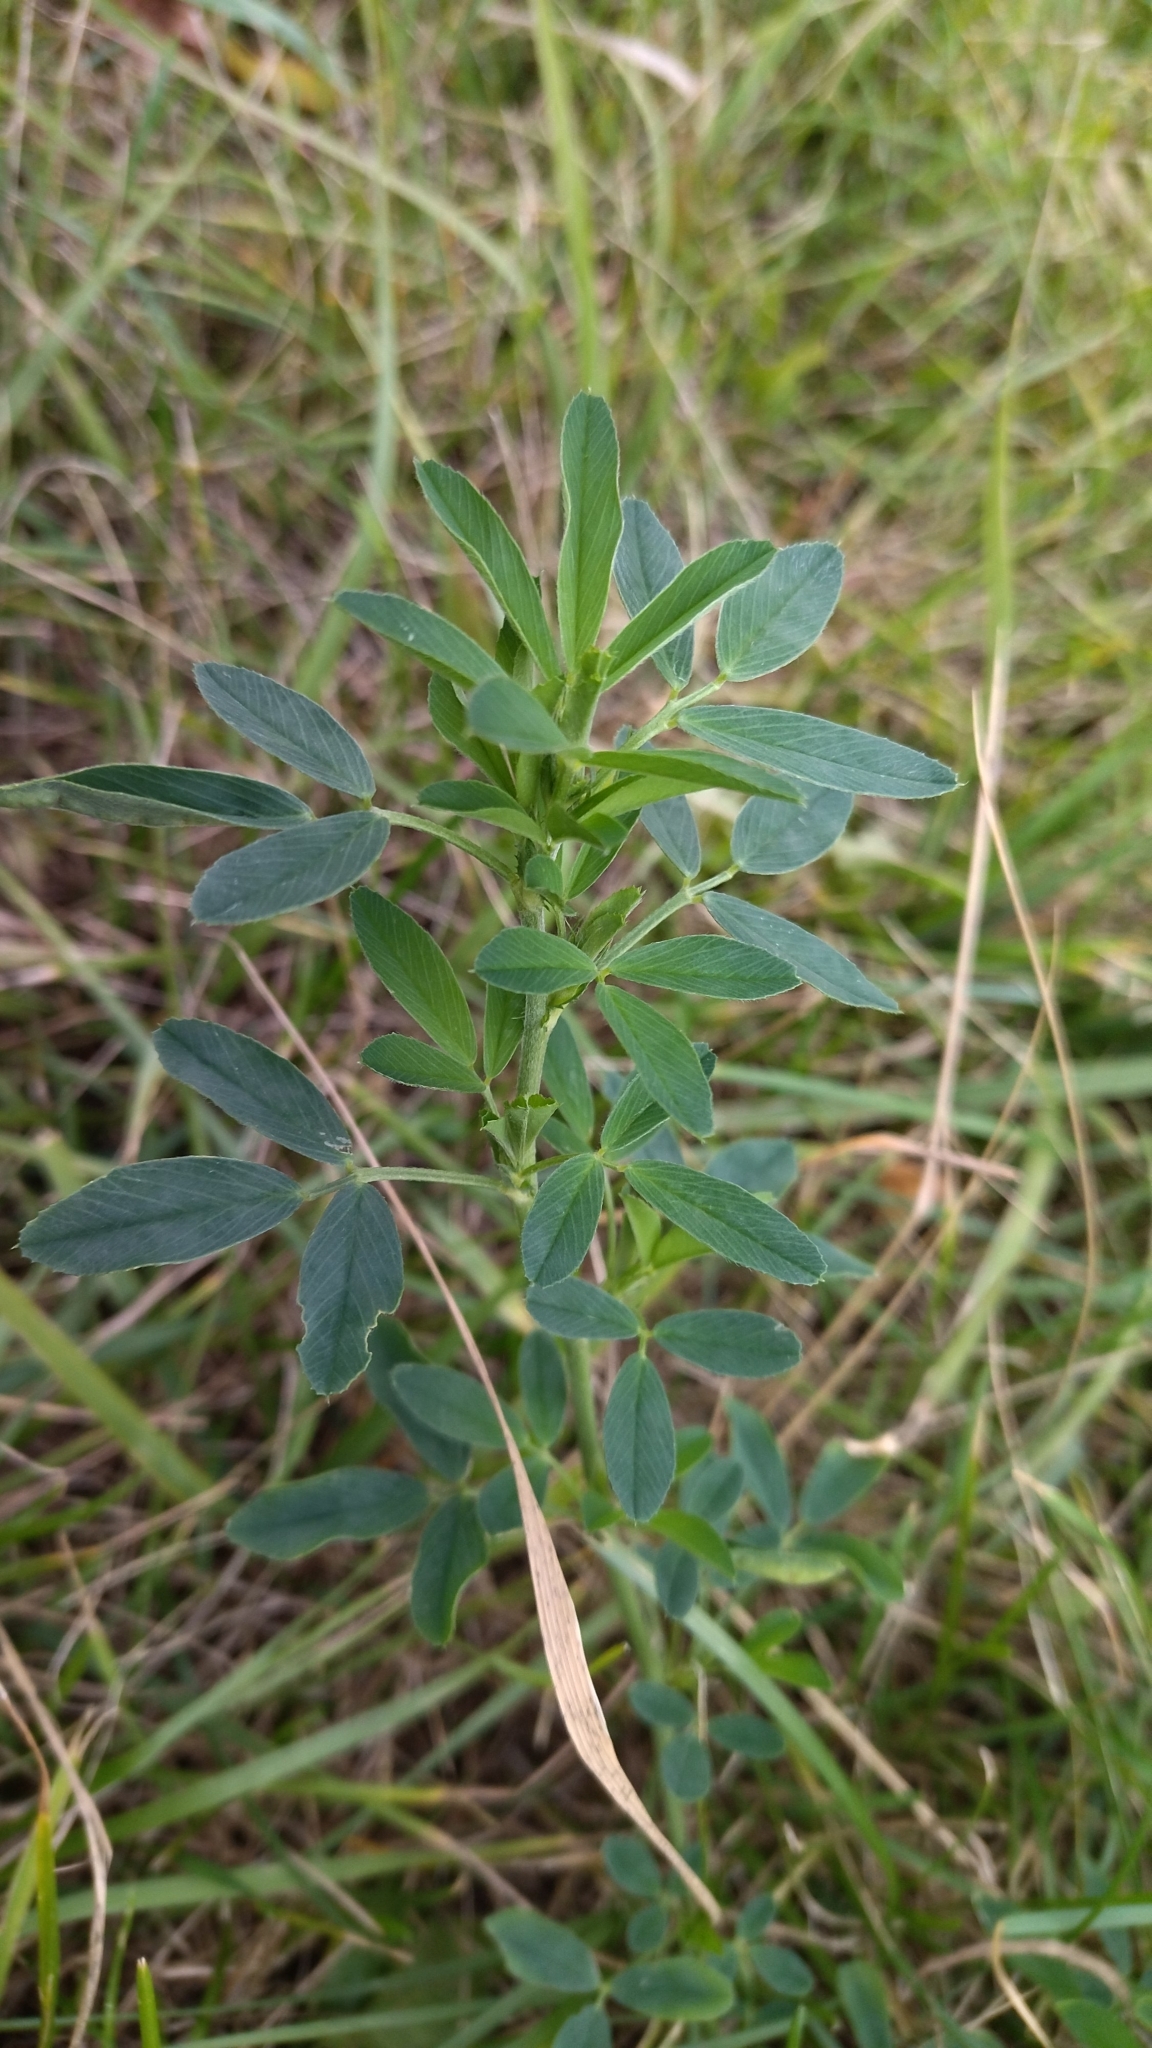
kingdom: Plantae
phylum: Tracheophyta
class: Magnoliopsida
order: Fabales
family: Fabaceae
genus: Medicago
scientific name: Medicago varia
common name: Sand lucerne
